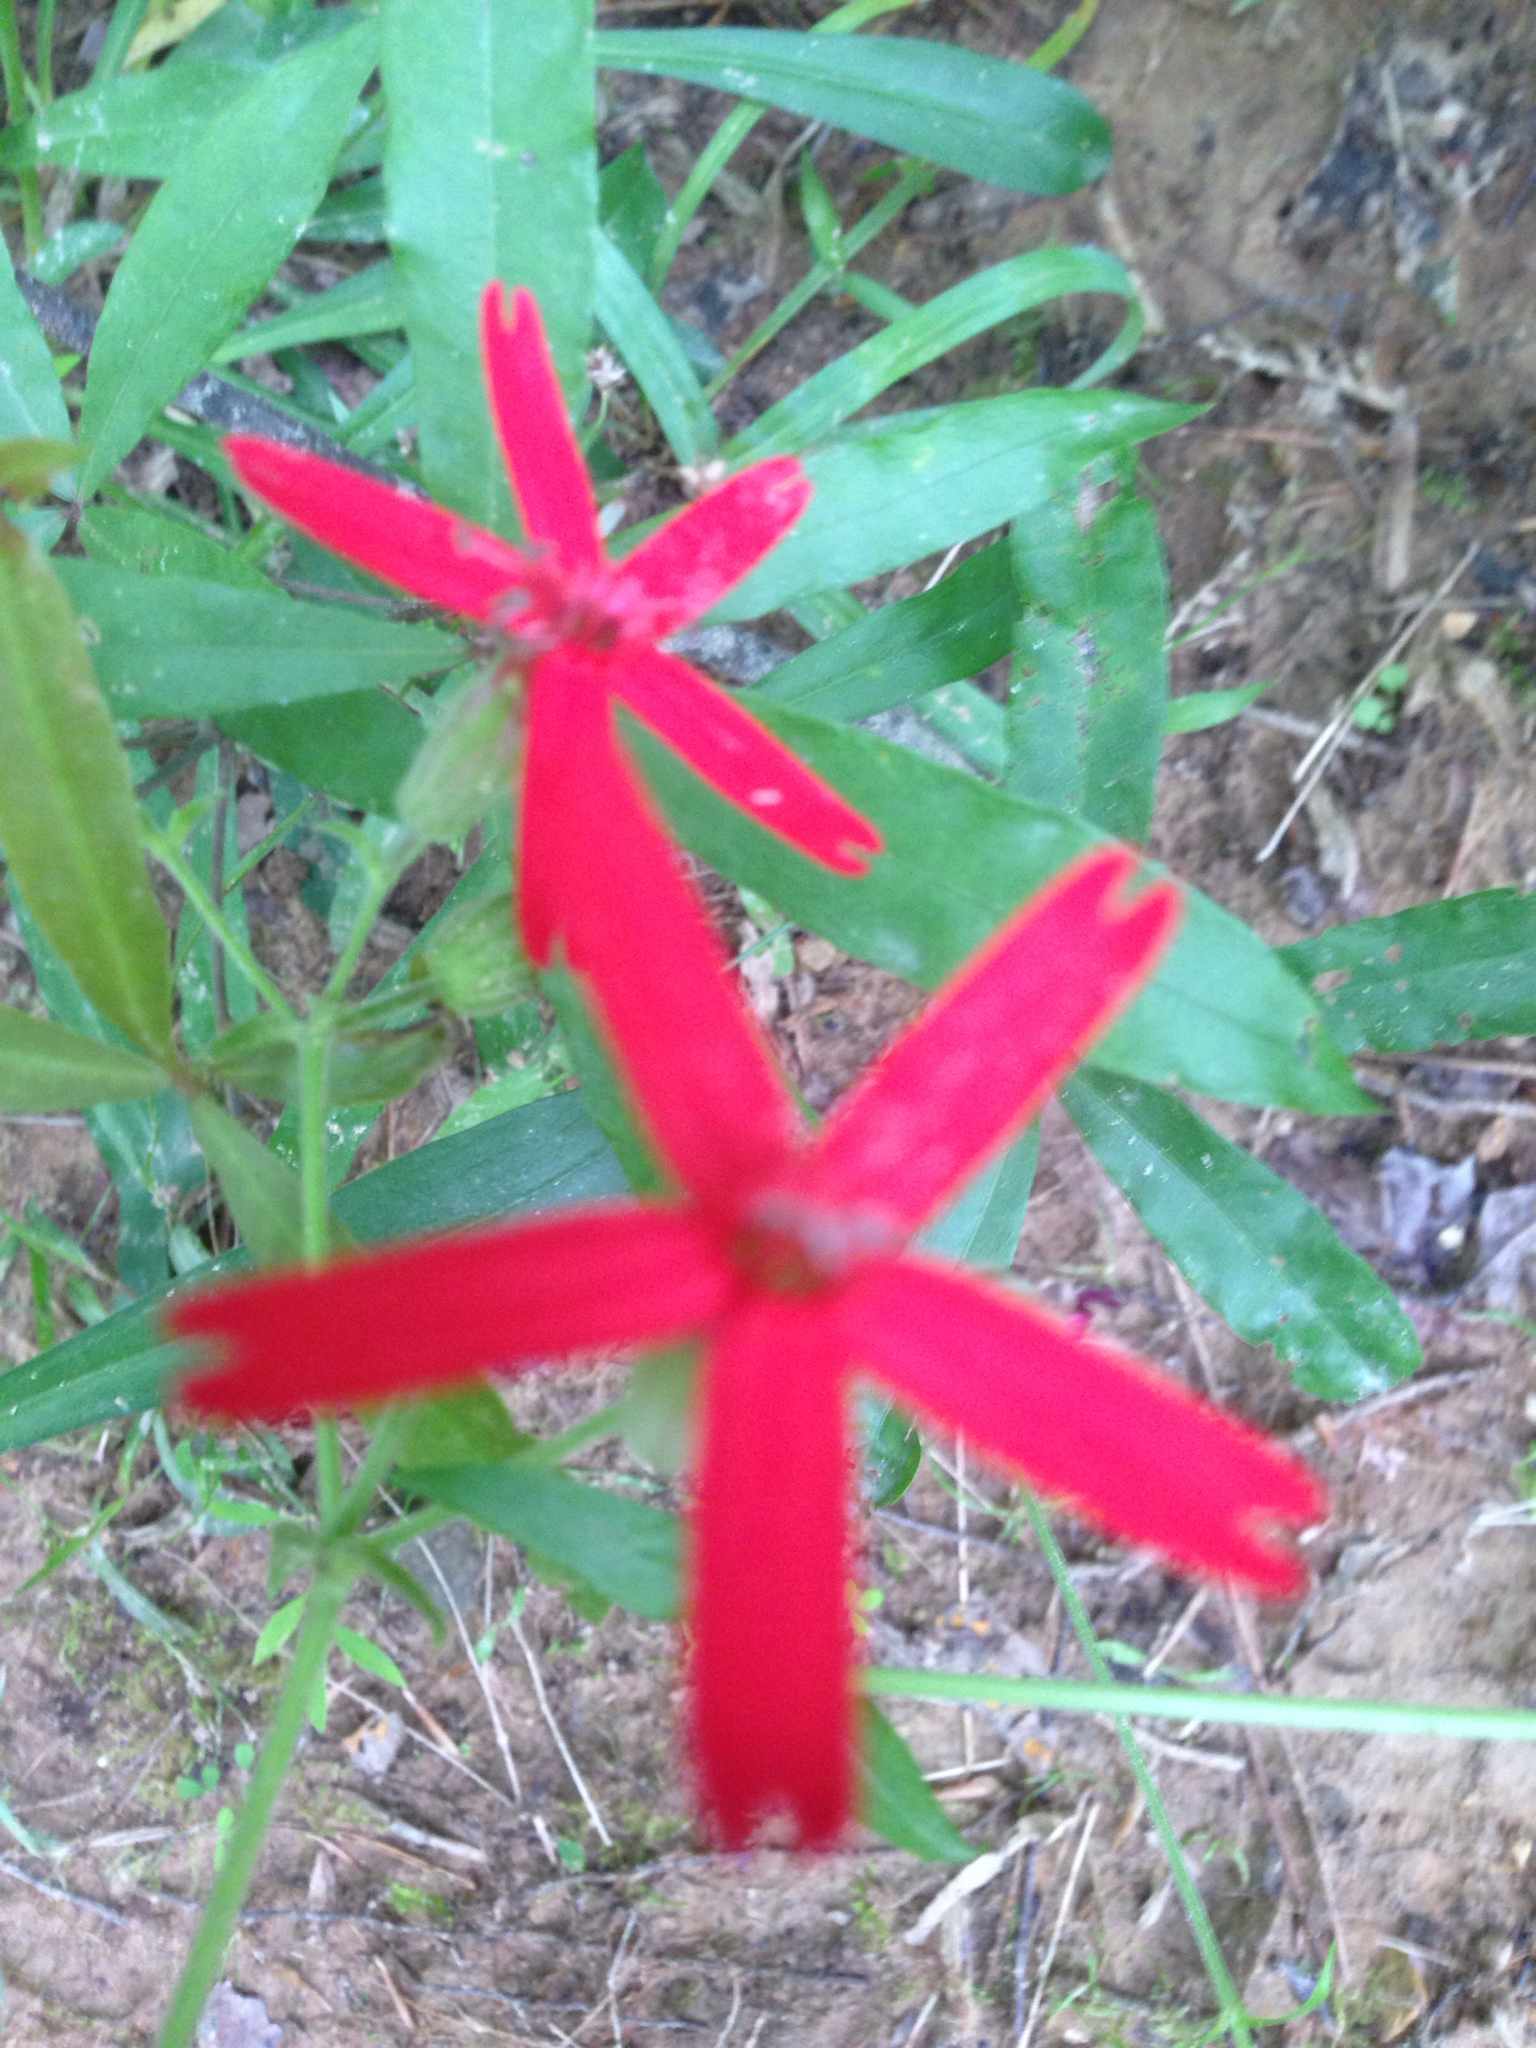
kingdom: Plantae
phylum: Tracheophyta
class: Magnoliopsida
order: Caryophyllales
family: Caryophyllaceae
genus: Silene
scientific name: Silene virginica
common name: Fire-pink
